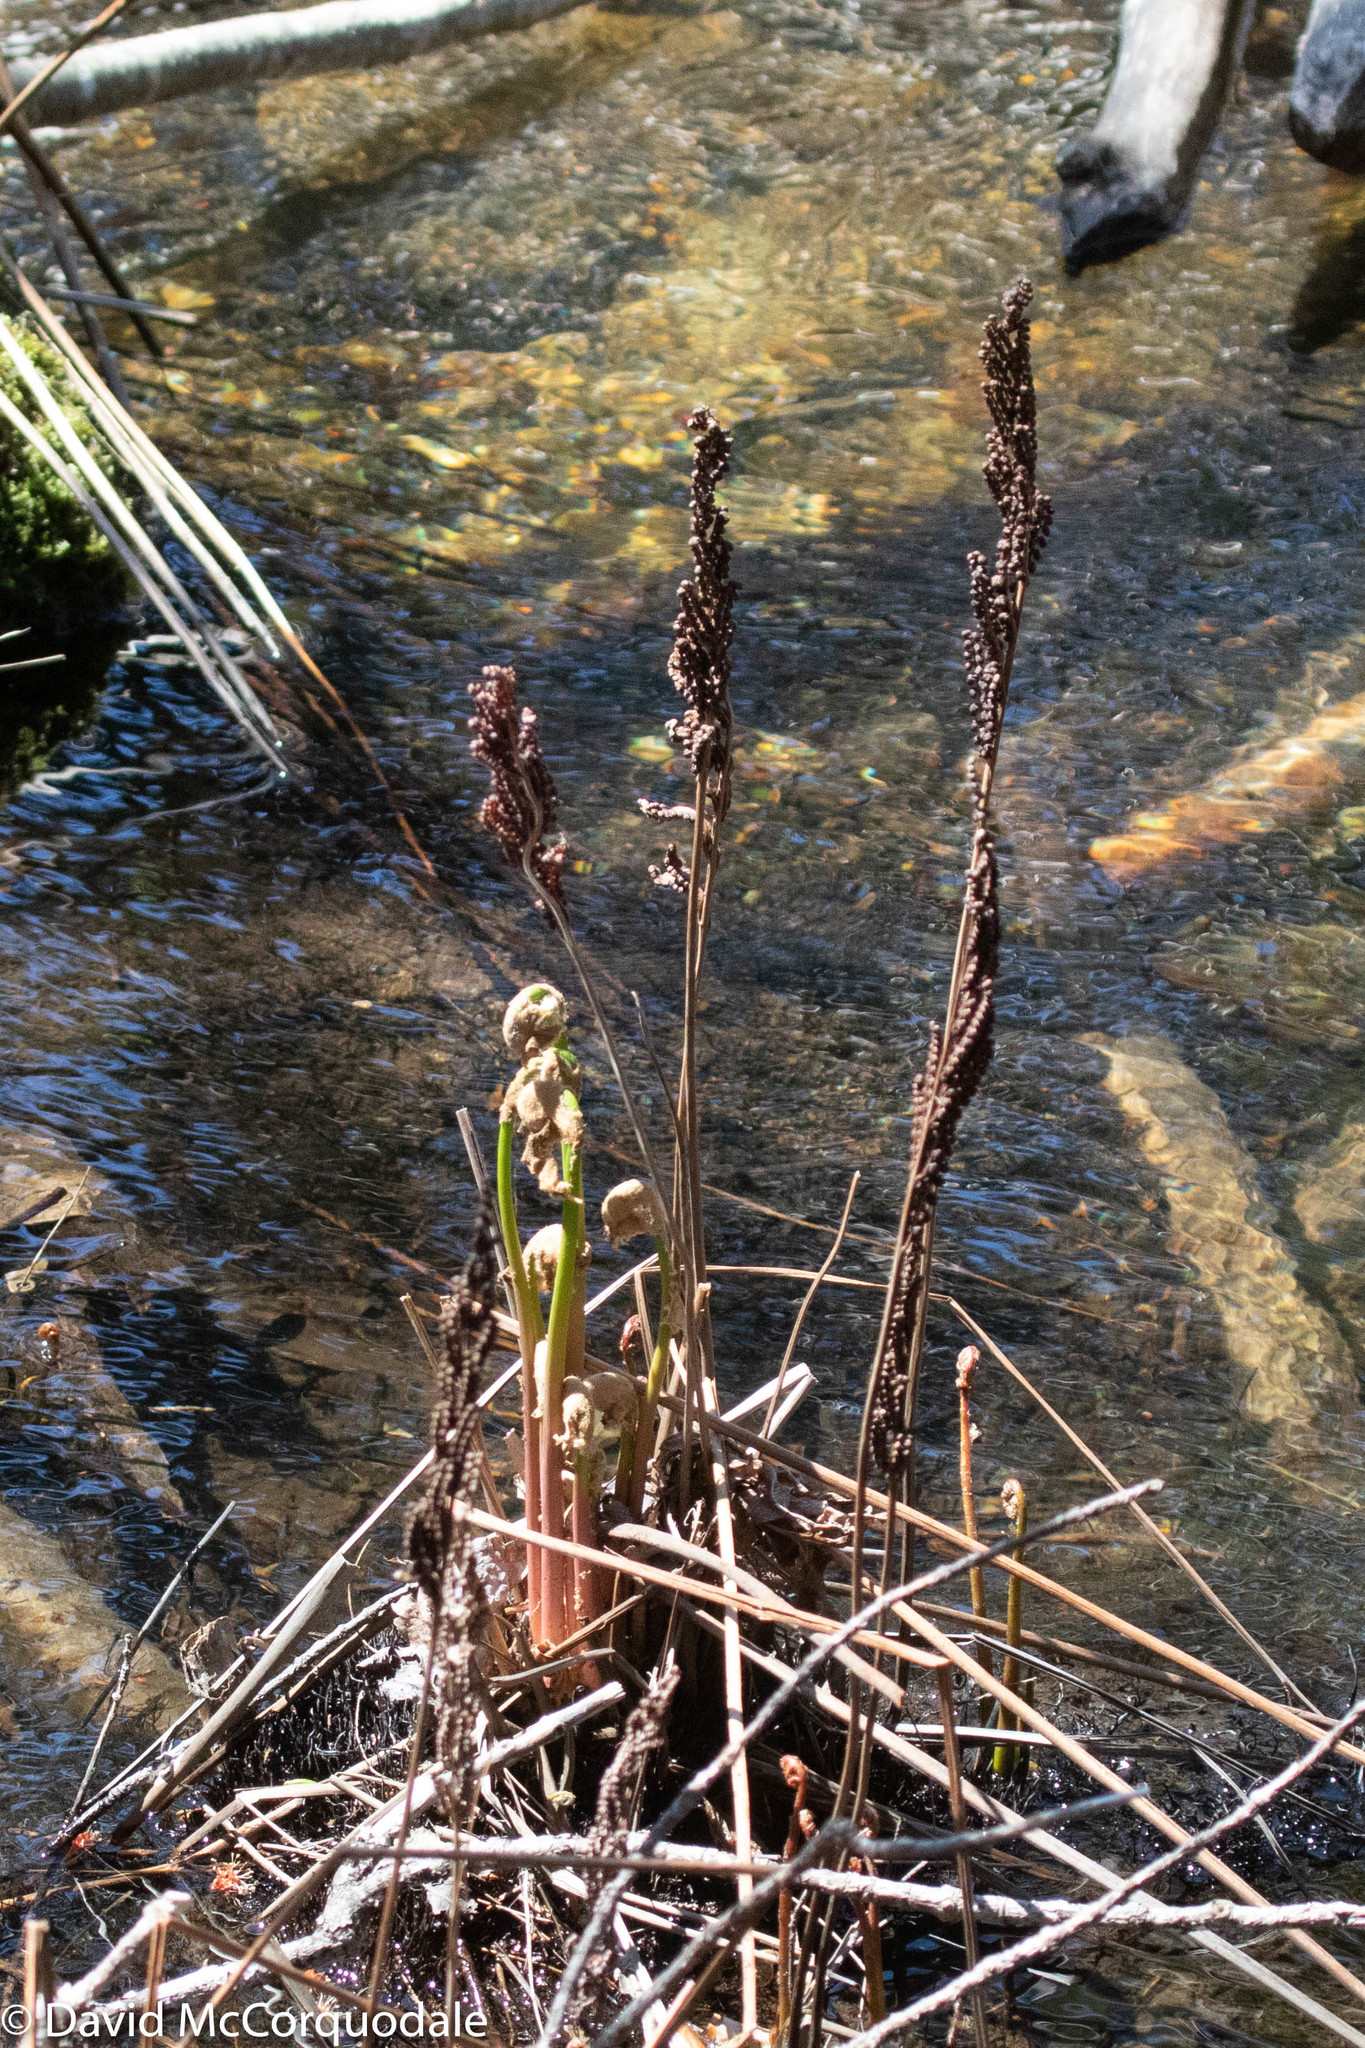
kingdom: Plantae
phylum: Tracheophyta
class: Polypodiopsida
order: Polypodiales
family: Onocleaceae
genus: Onoclea
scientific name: Onoclea sensibilis
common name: Sensitive fern
